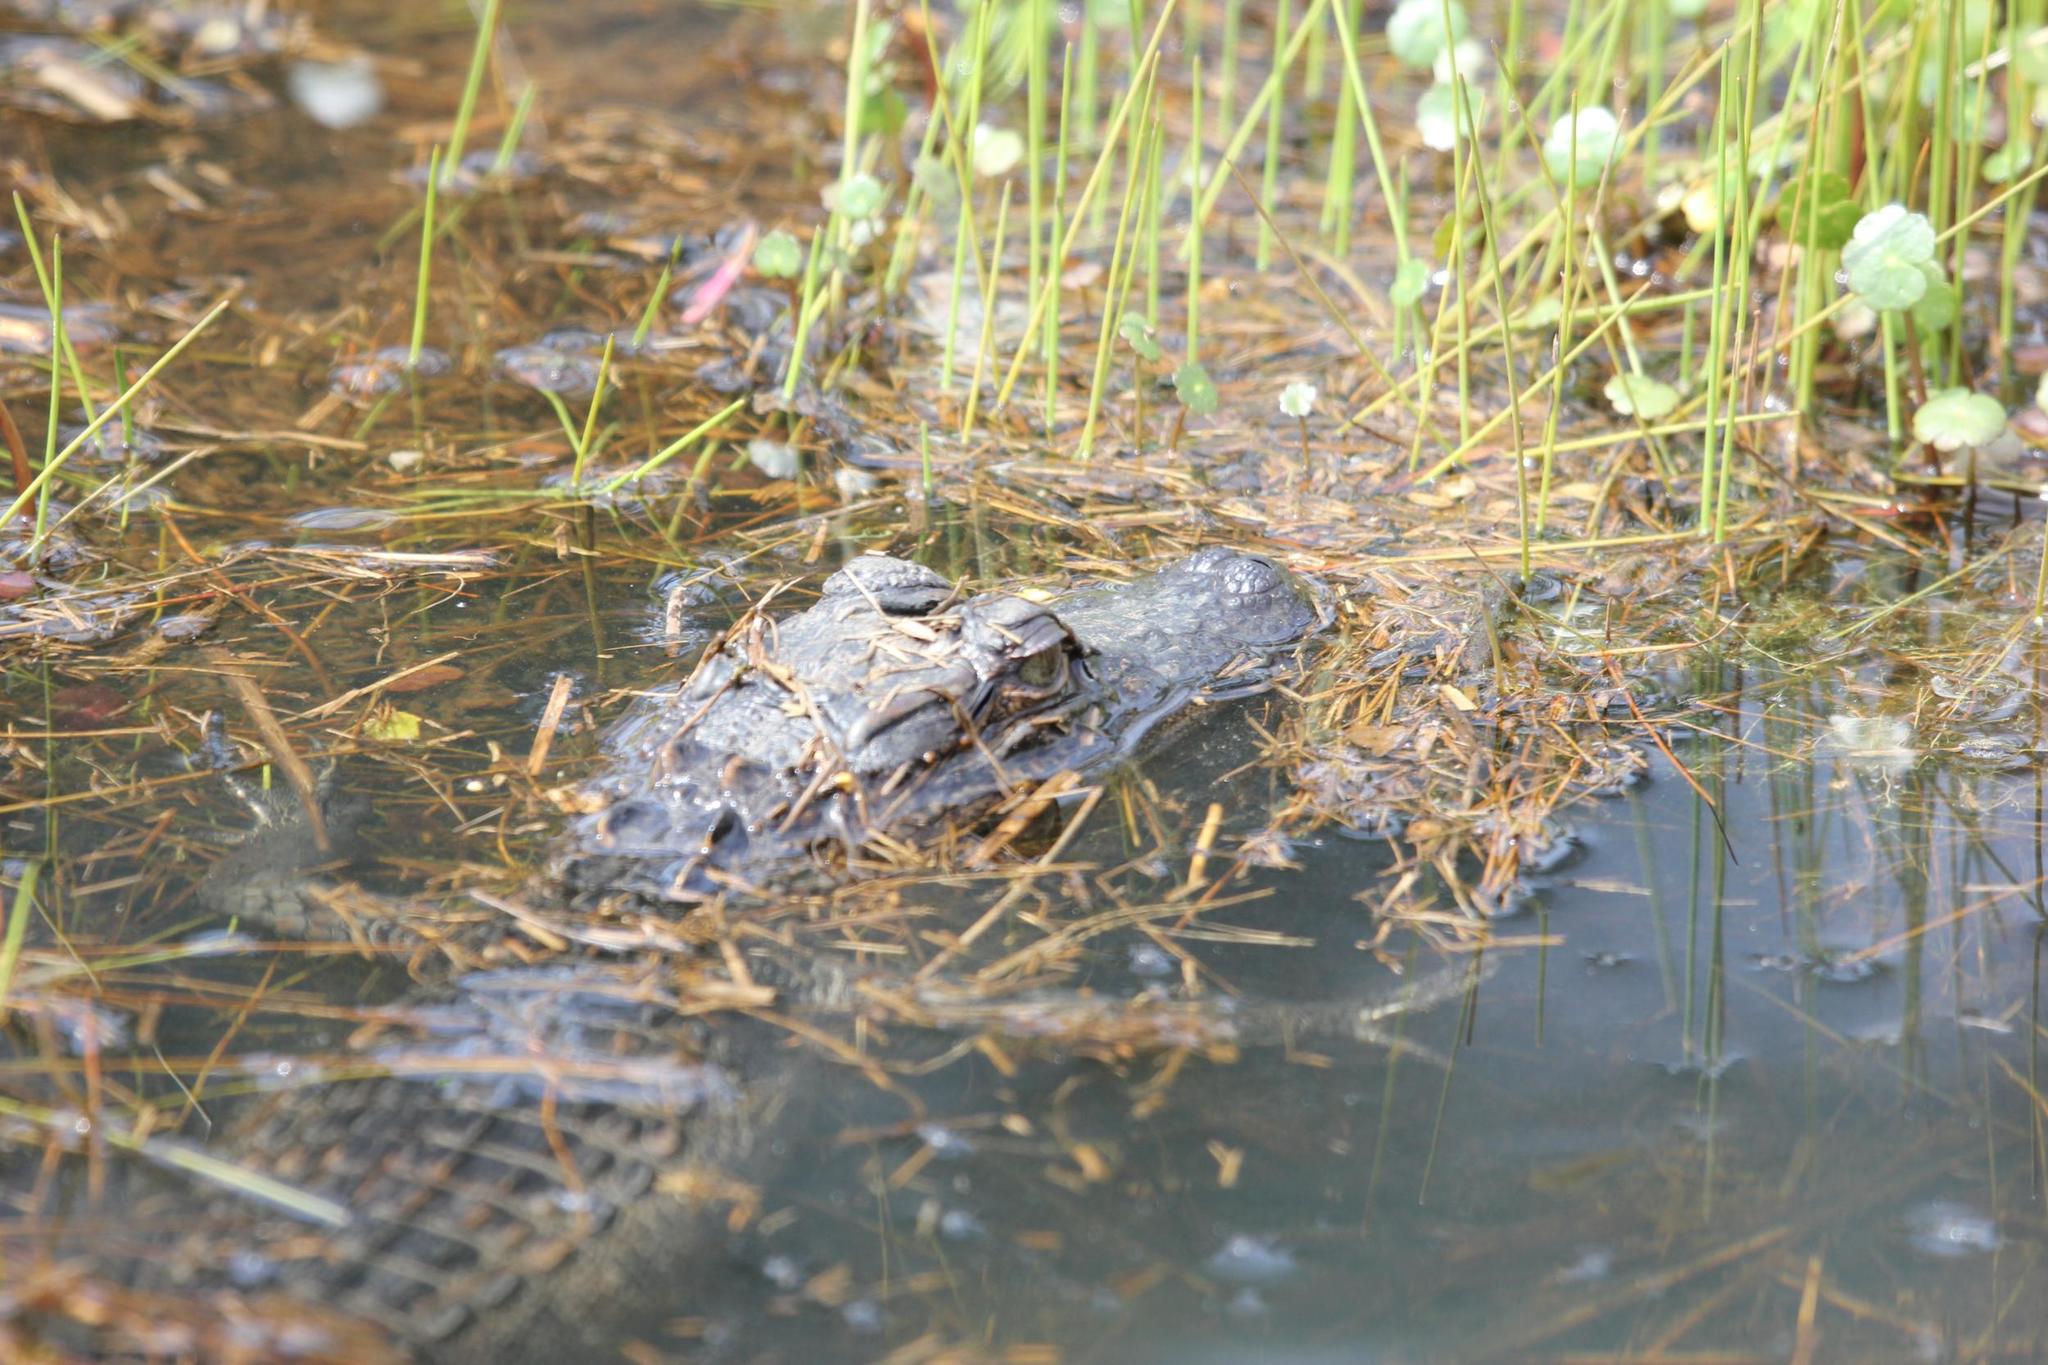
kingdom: Animalia
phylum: Chordata
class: Crocodylia
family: Alligatoridae
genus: Alligator
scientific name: Alligator mississippiensis
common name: American alligator
